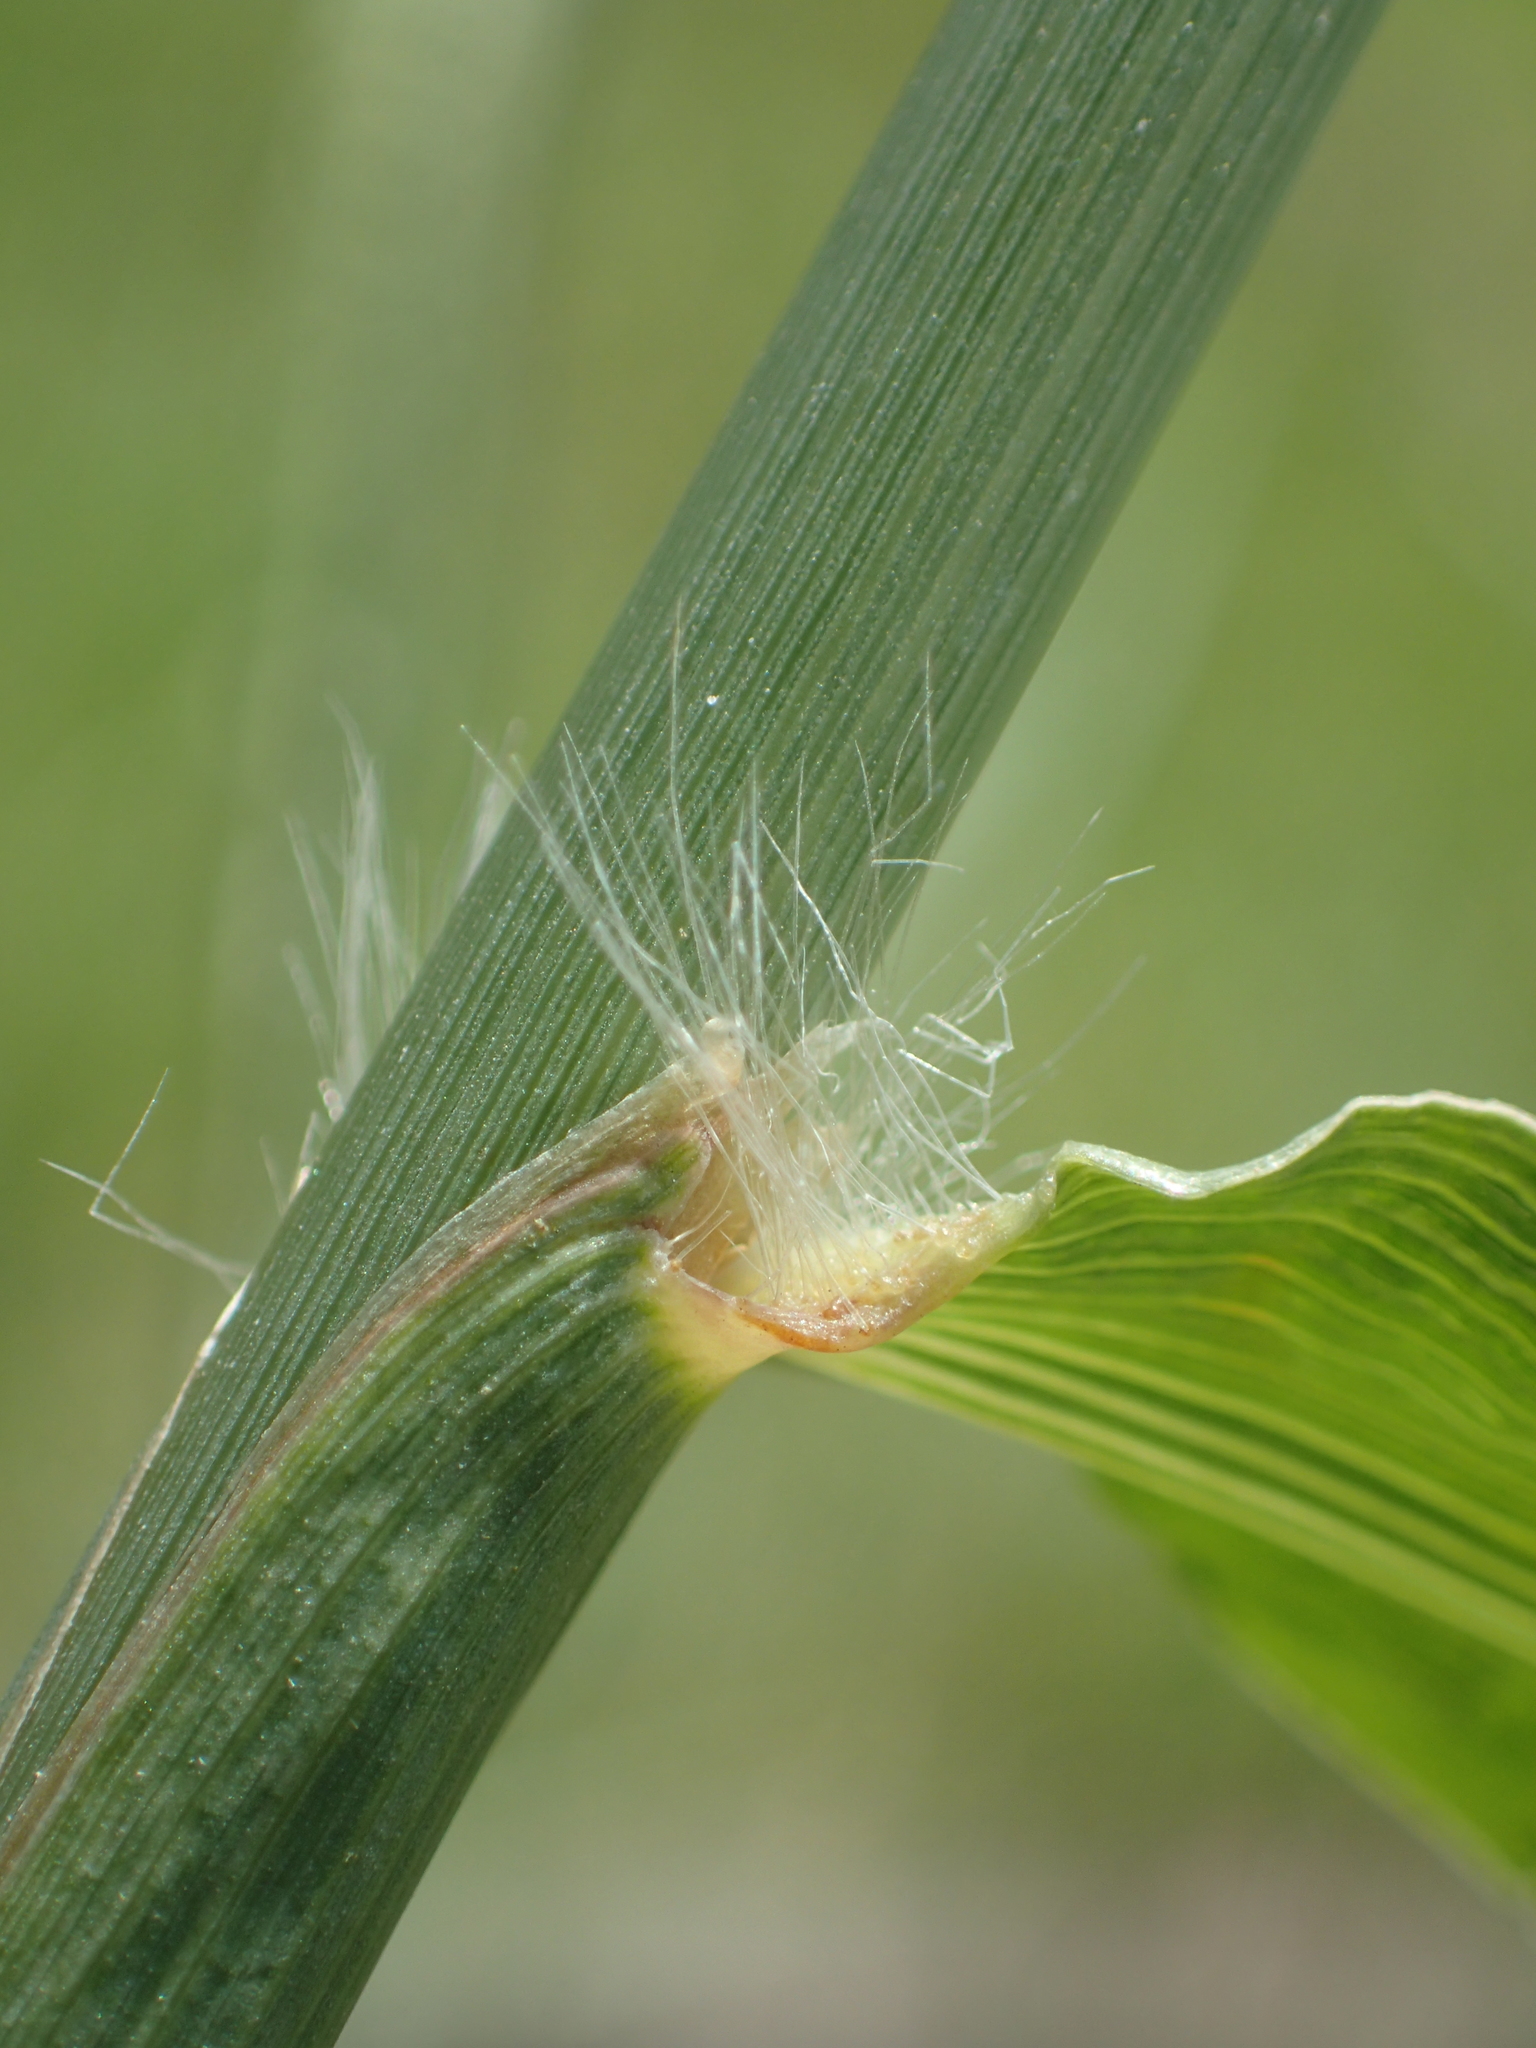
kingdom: Plantae
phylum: Tracheophyta
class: Liliopsida
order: Poales
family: Poaceae
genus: Paspalum
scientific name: Paspalum urvillei
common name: Vasey's grass
